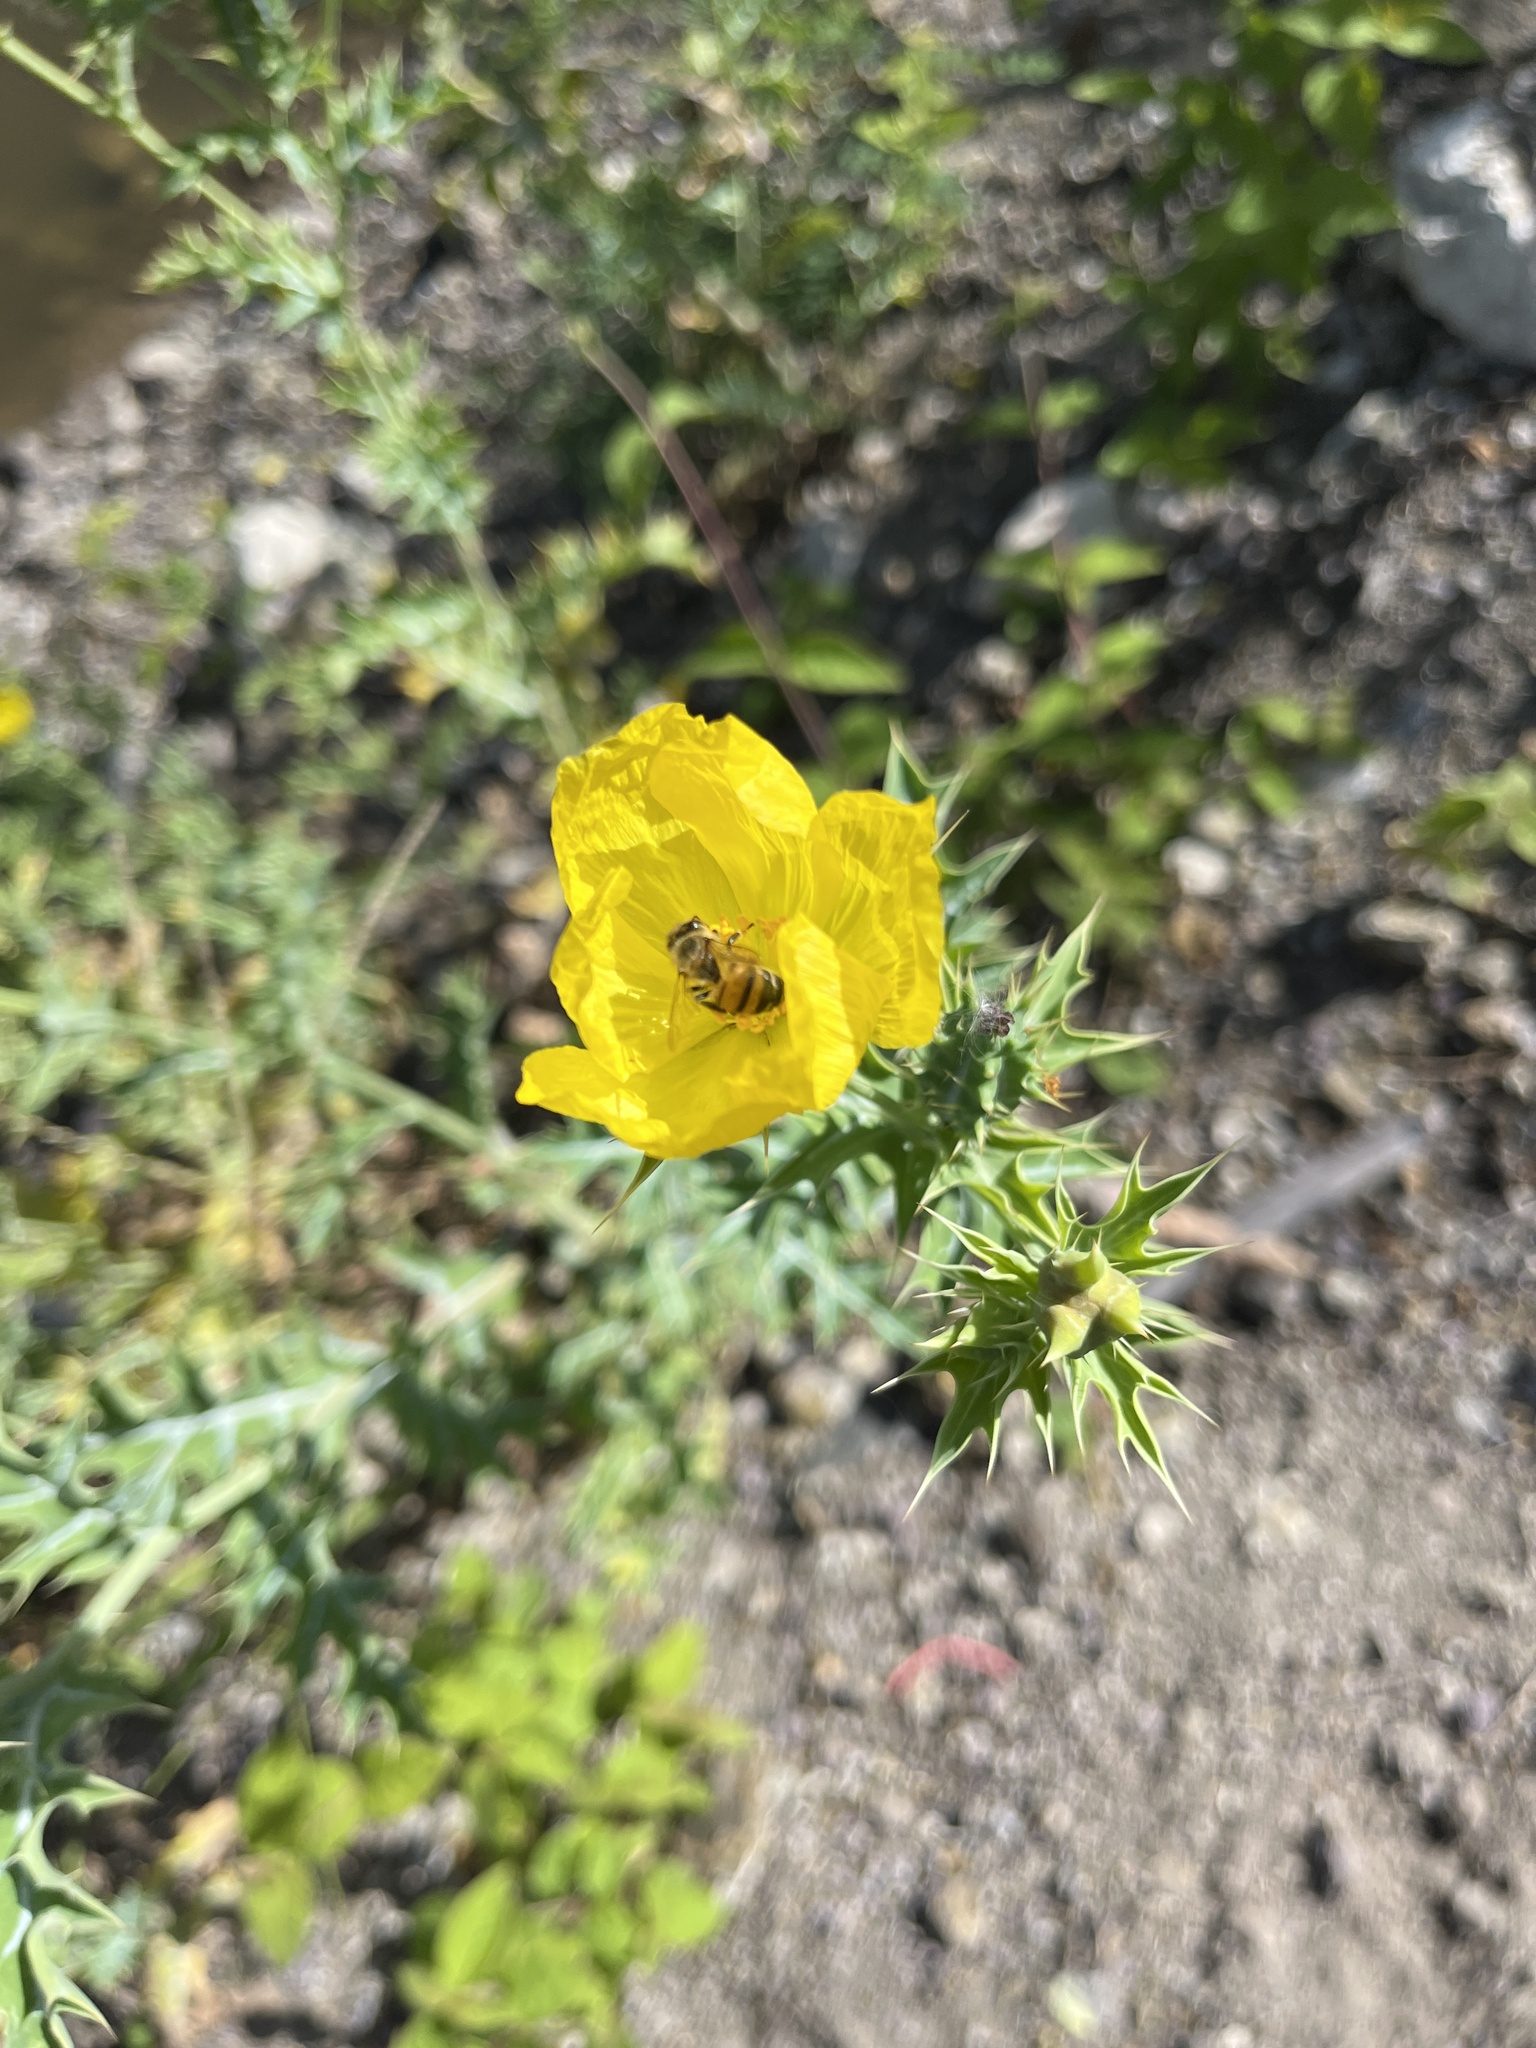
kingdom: Animalia
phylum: Arthropoda
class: Insecta
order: Hymenoptera
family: Apidae
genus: Apis
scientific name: Apis mellifera
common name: Honey bee
